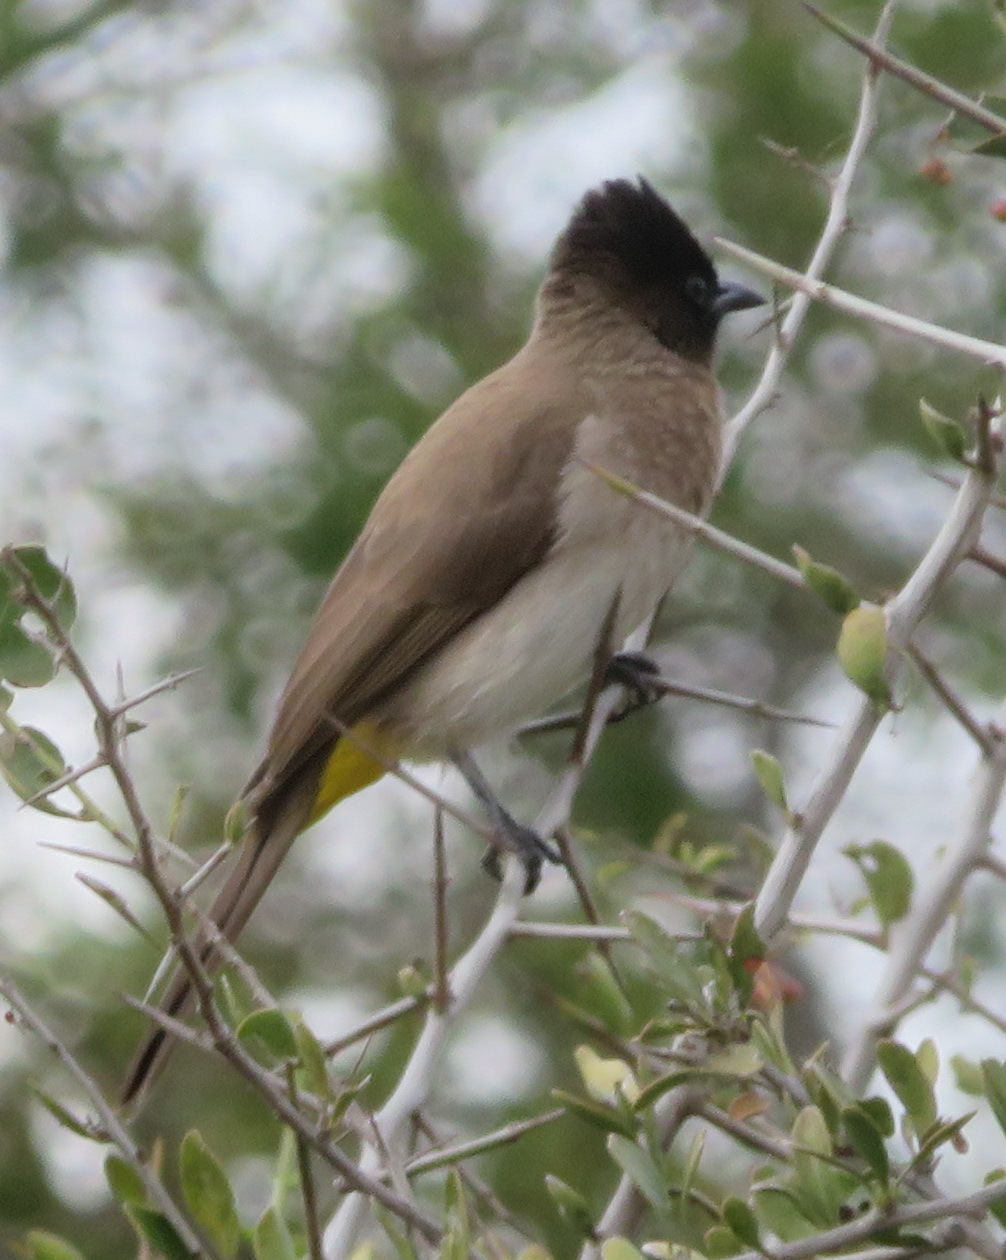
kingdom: Animalia
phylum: Chordata
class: Aves
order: Passeriformes
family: Pycnonotidae
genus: Pycnonotus
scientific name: Pycnonotus barbatus
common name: Common bulbul
